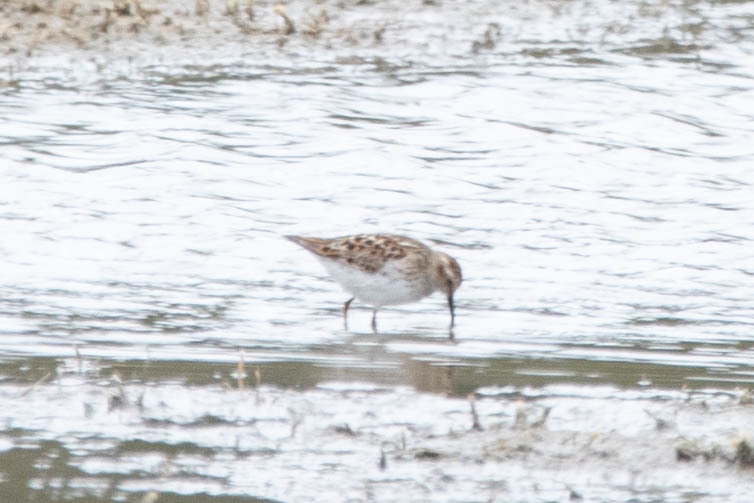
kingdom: Animalia
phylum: Chordata
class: Aves
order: Charadriiformes
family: Scolopacidae
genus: Calidris
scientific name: Calidris minutilla
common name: Least sandpiper
